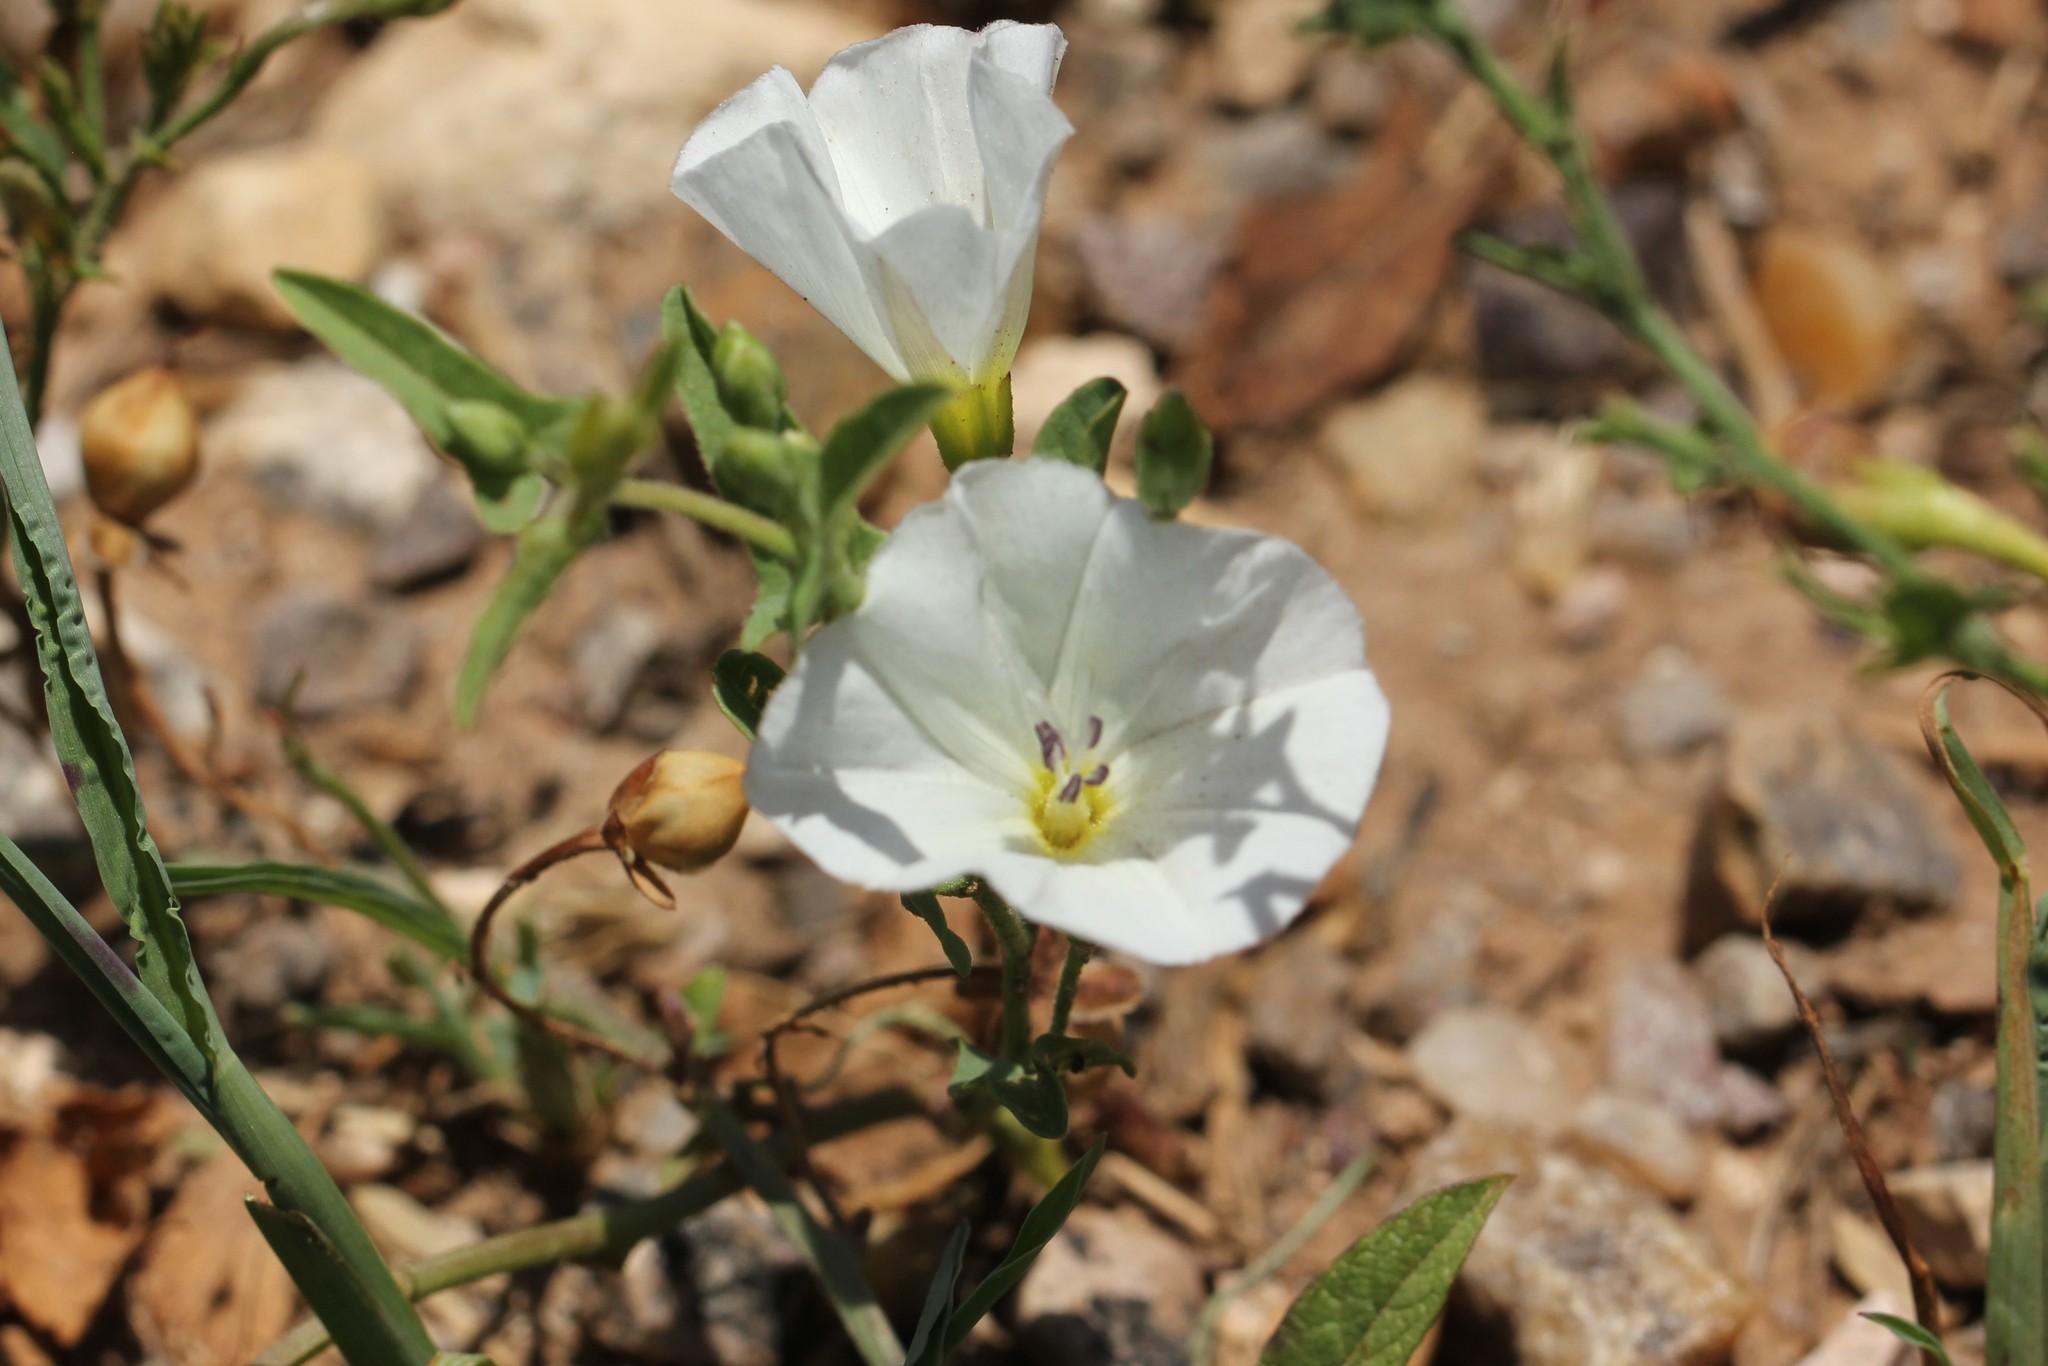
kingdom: Plantae
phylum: Tracheophyta
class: Magnoliopsida
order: Solanales
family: Convolvulaceae
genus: Convolvulus
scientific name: Convolvulus arvensis
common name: Field bindweed
